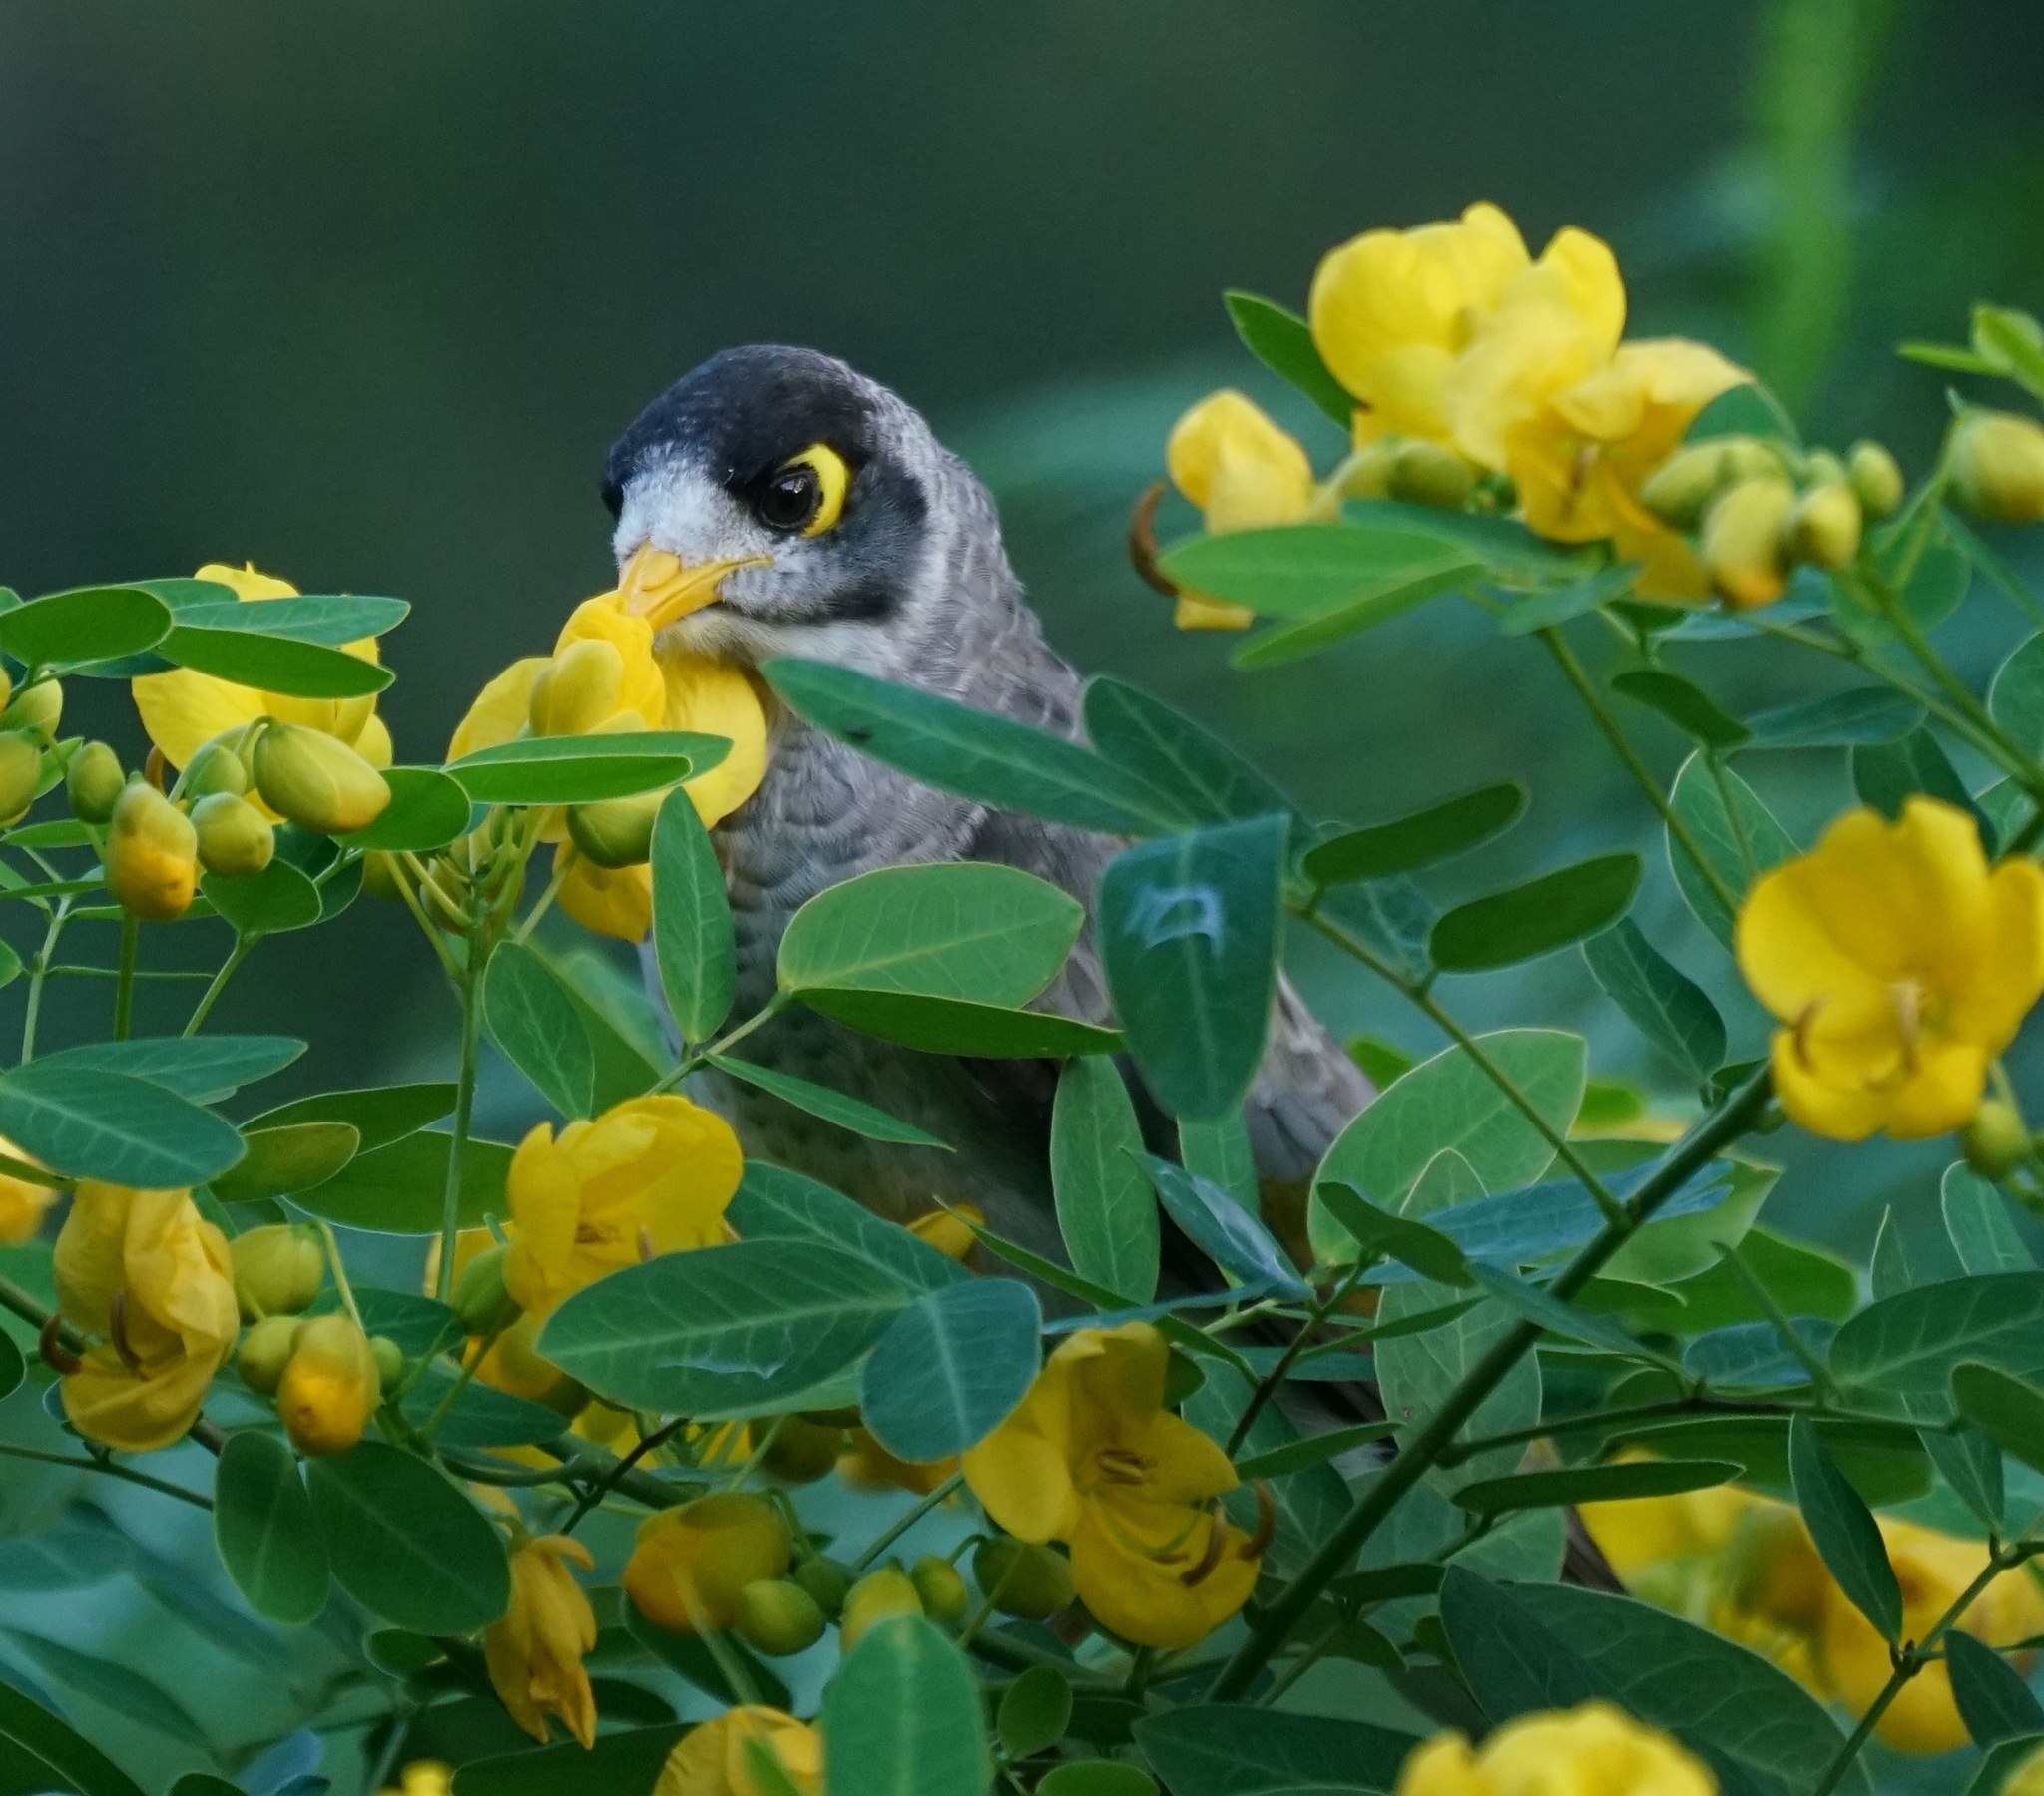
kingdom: Animalia
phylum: Chordata
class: Aves
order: Passeriformes
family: Meliphagidae
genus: Manorina
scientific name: Manorina melanocephala
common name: Noisy miner
